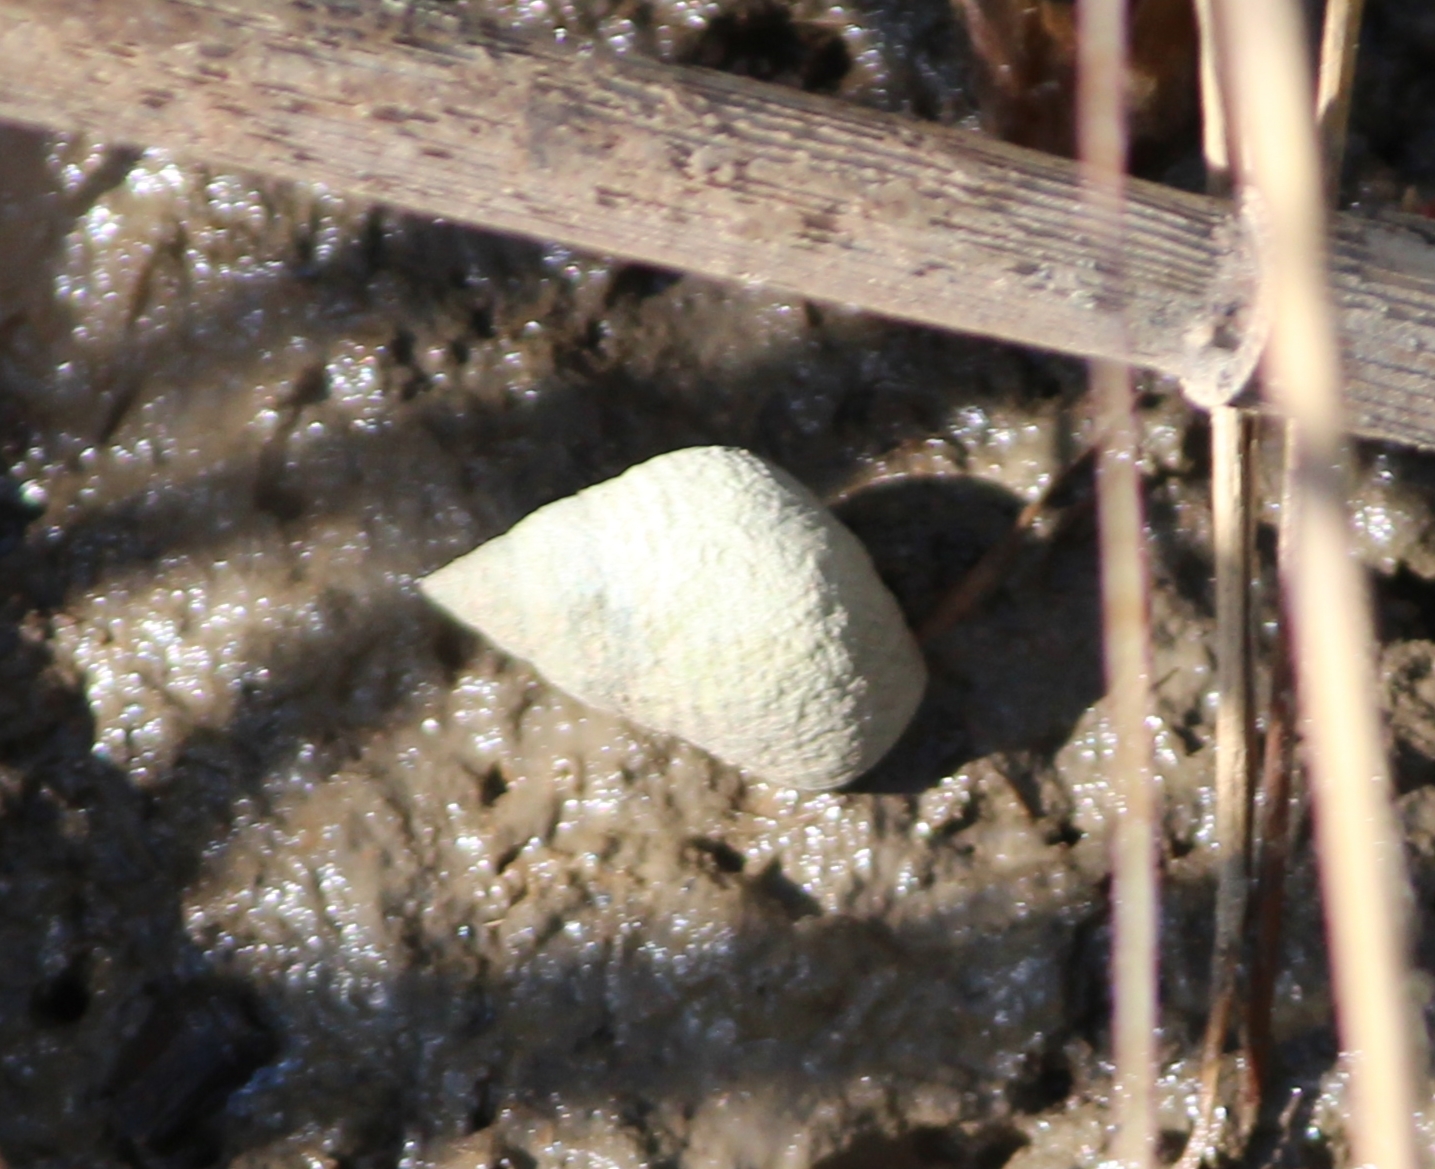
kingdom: Animalia
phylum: Mollusca
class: Gastropoda
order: Littorinimorpha
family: Littorinidae
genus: Littoraria
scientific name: Littoraria irrorata
